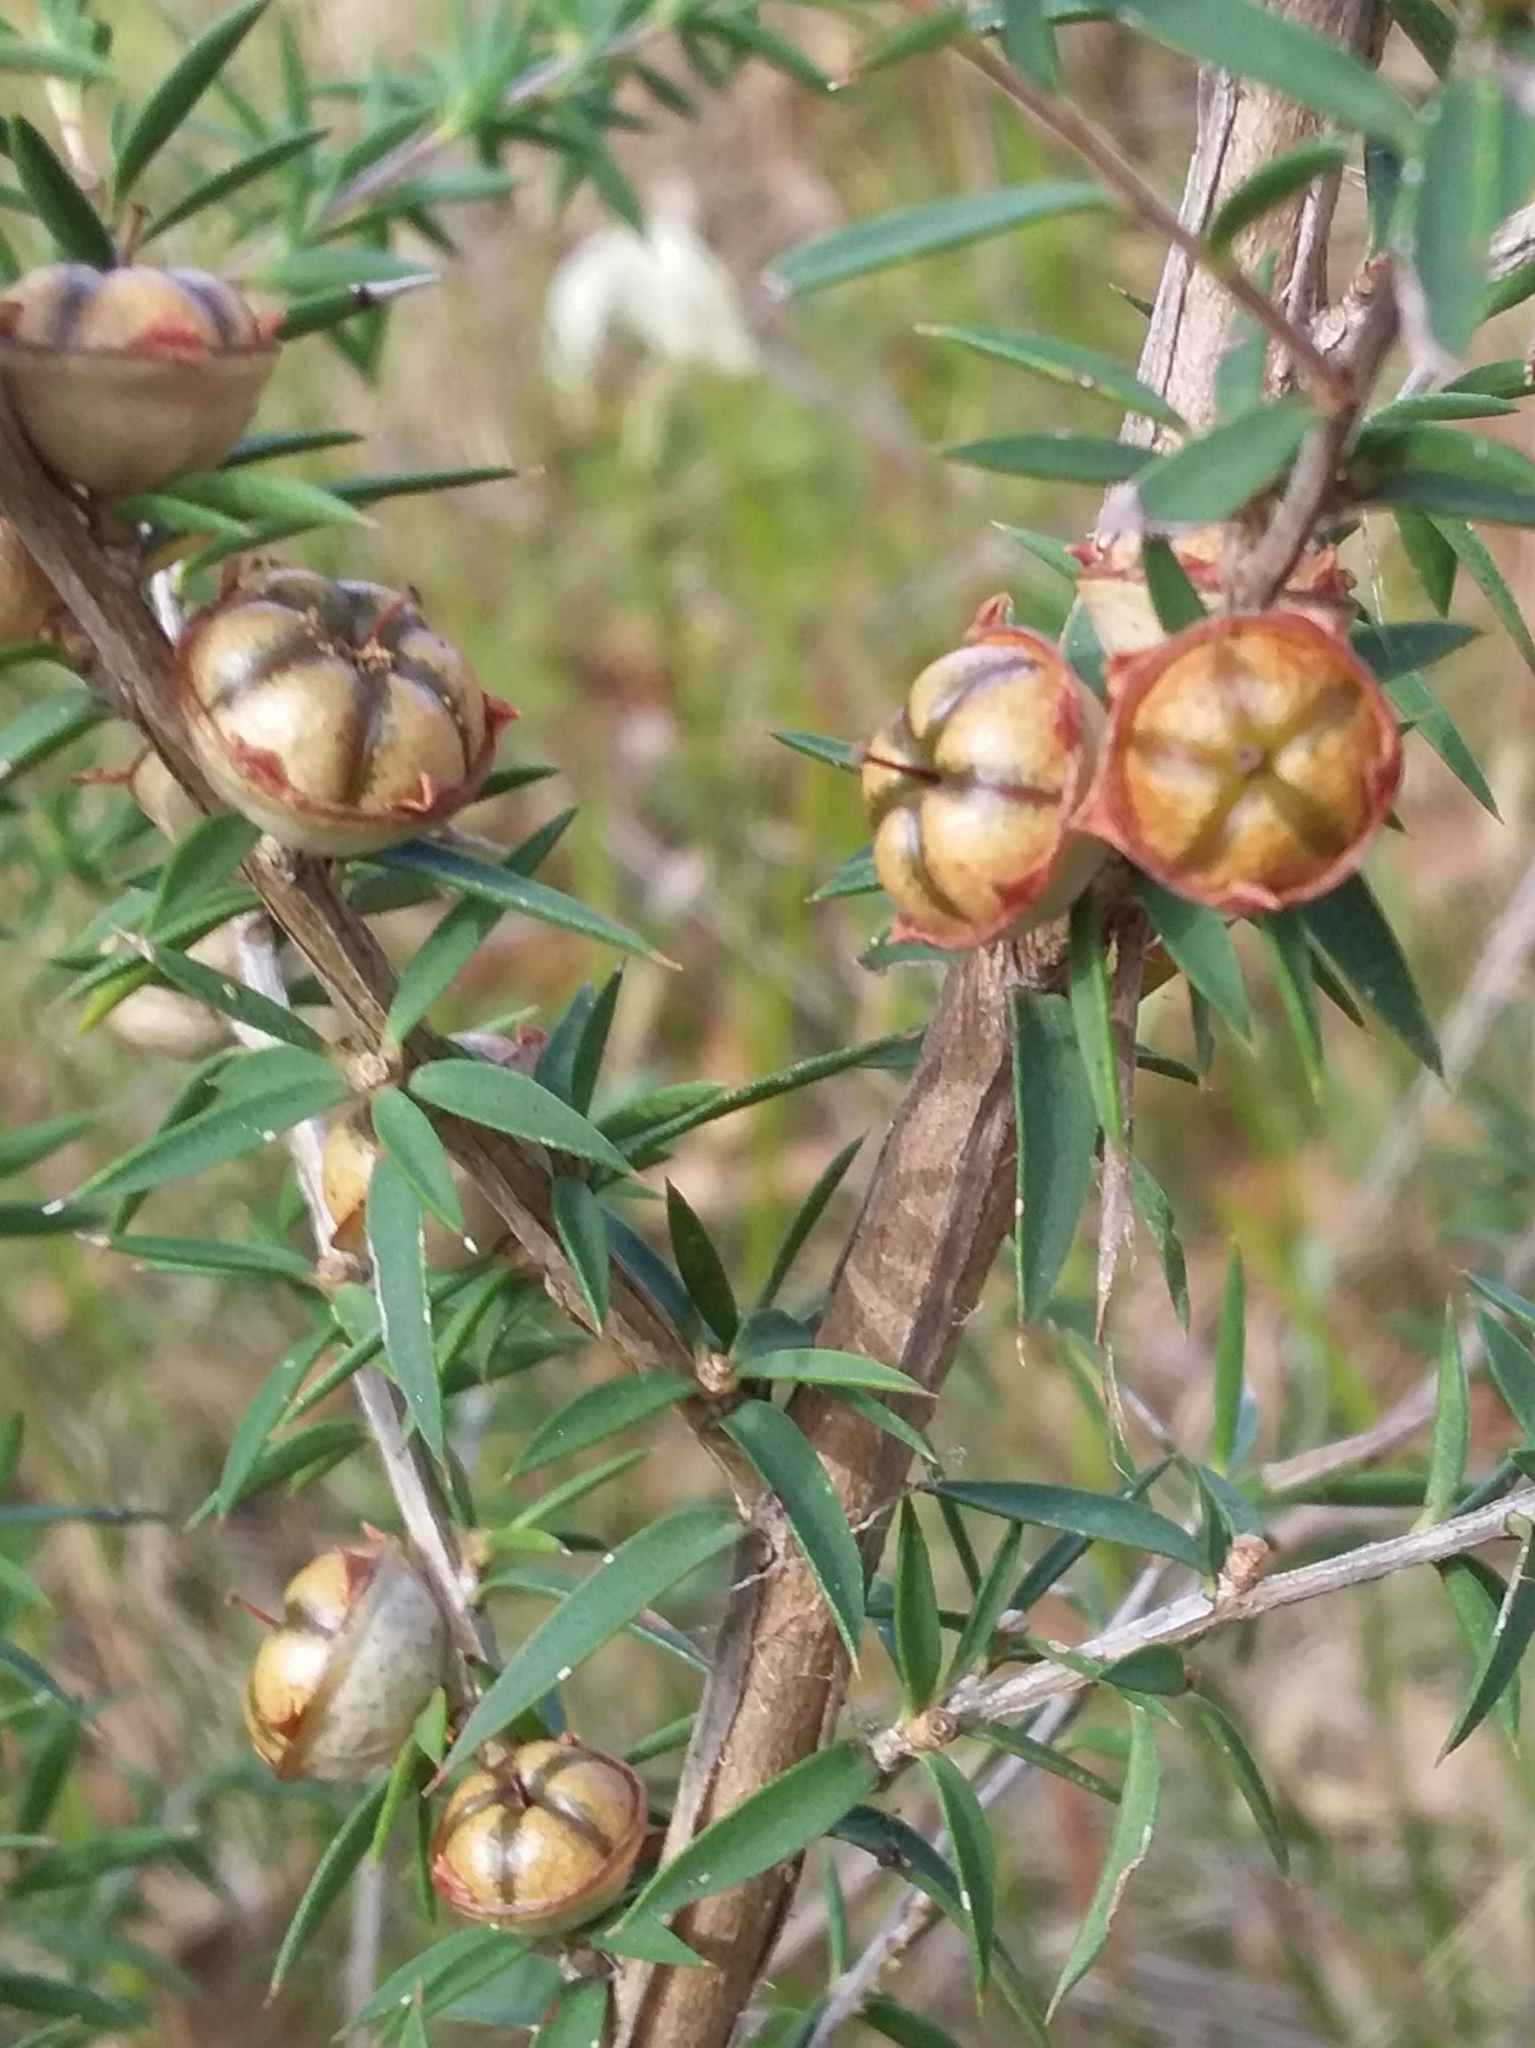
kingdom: Plantae
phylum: Tracheophyta
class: Magnoliopsida
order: Myrtales
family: Myrtaceae
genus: Leptospermum
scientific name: Leptospermum continentale
